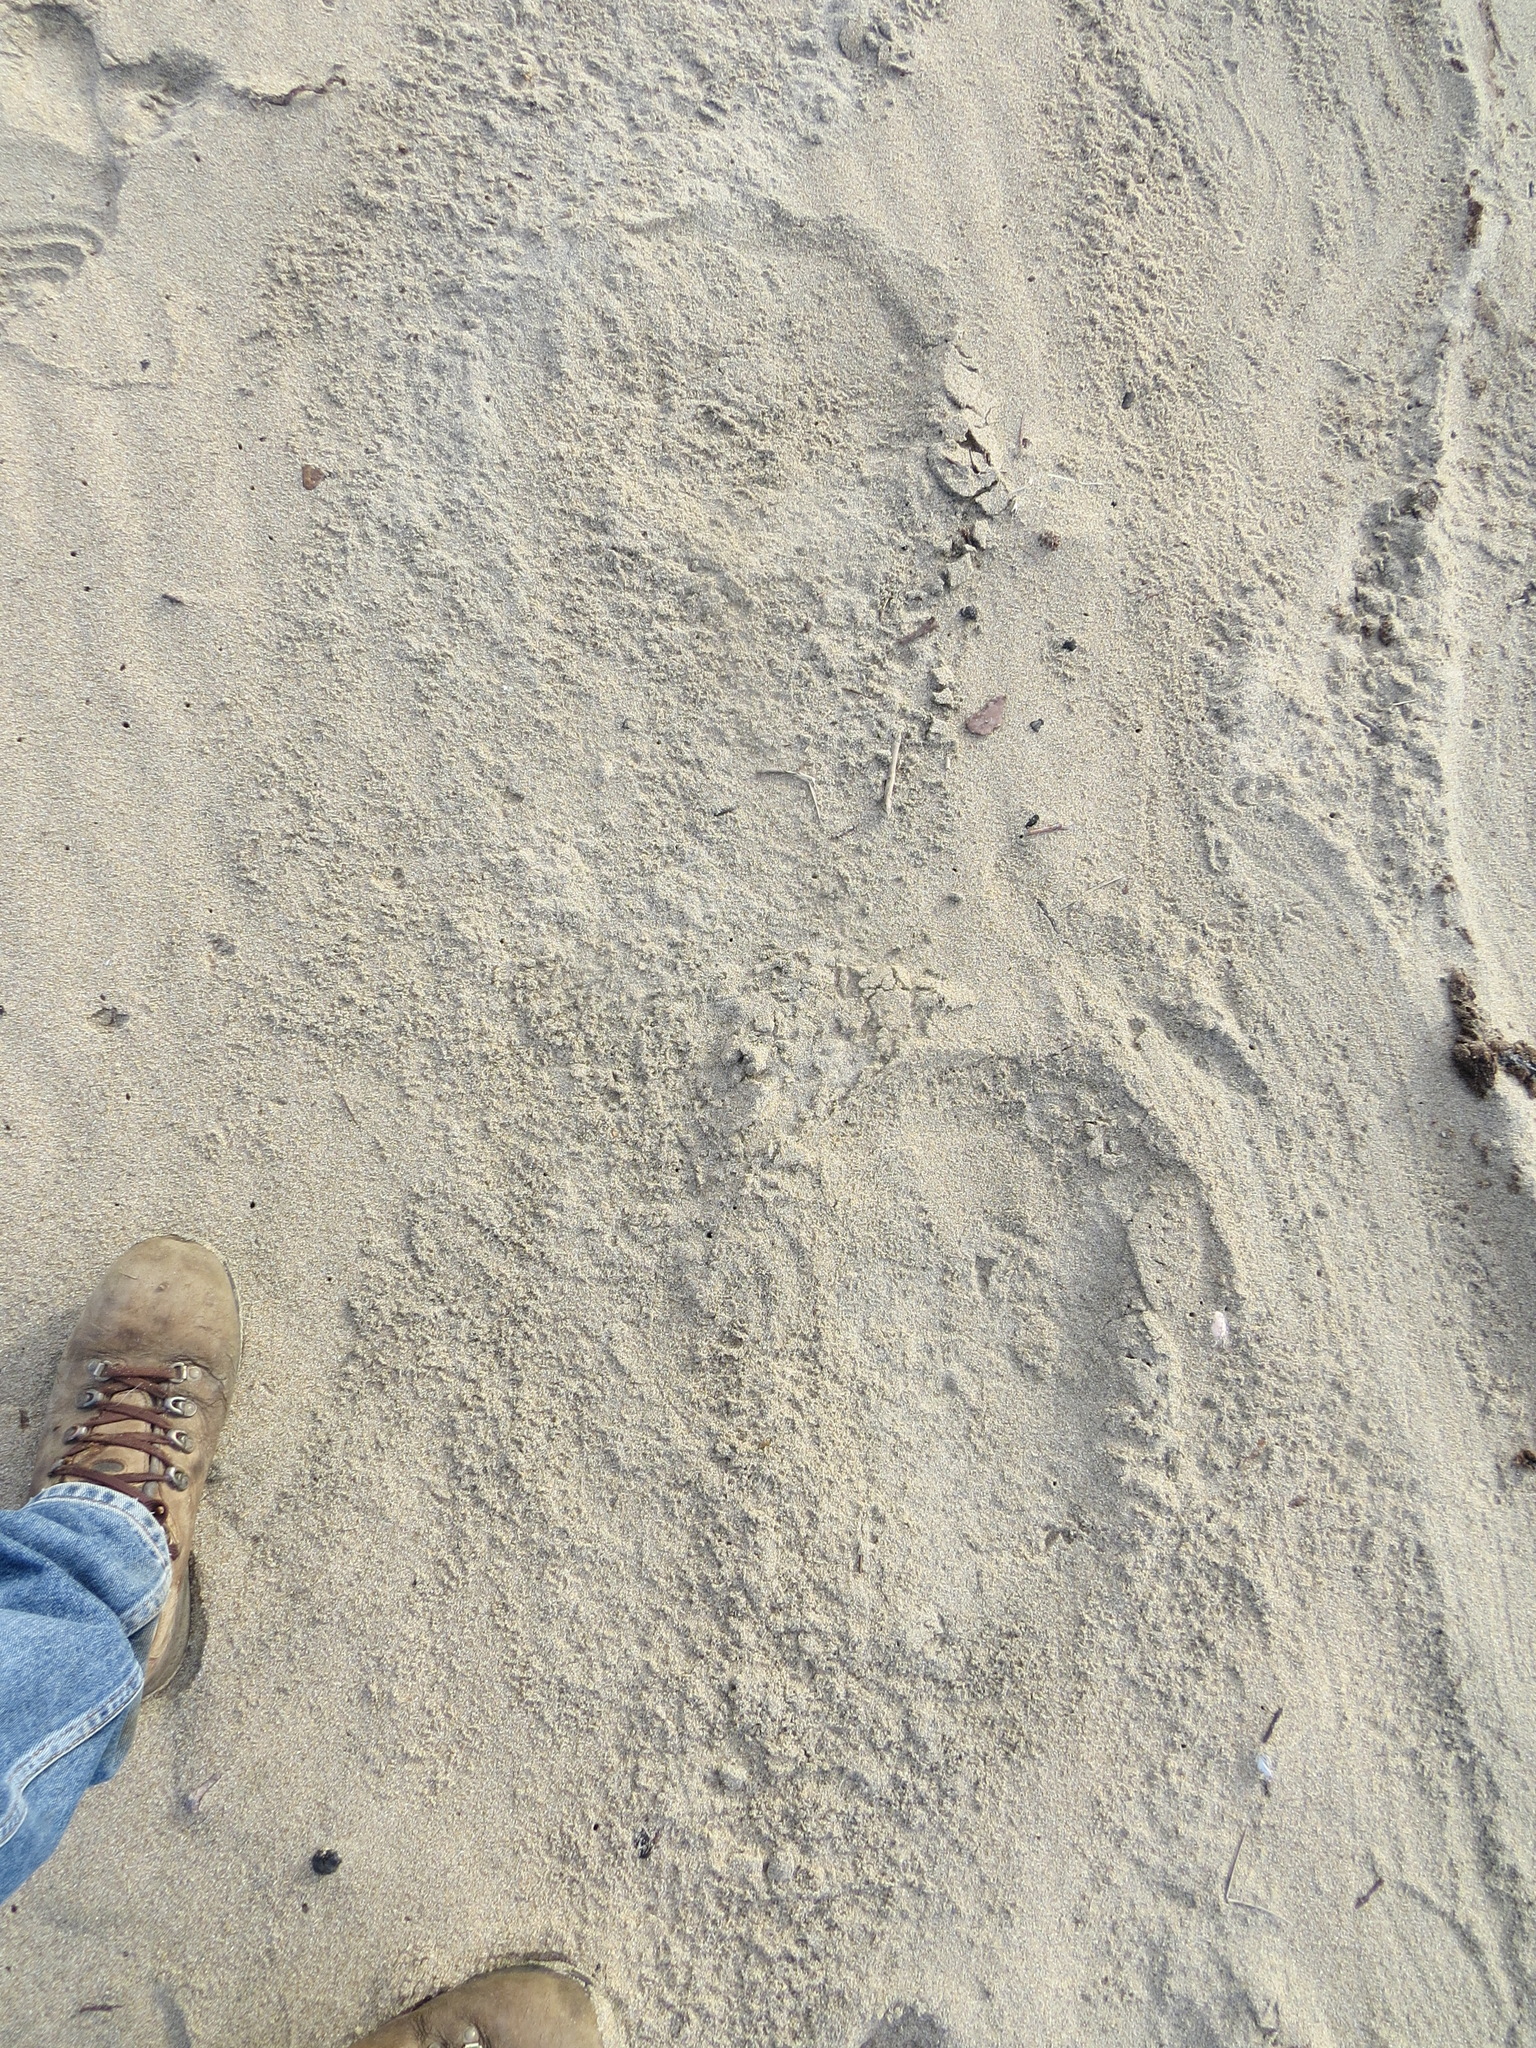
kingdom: Animalia
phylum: Chordata
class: Mammalia
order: Carnivora
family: Phocidae
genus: Mirounga
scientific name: Mirounga angustirostris
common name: Northern elephant seal
